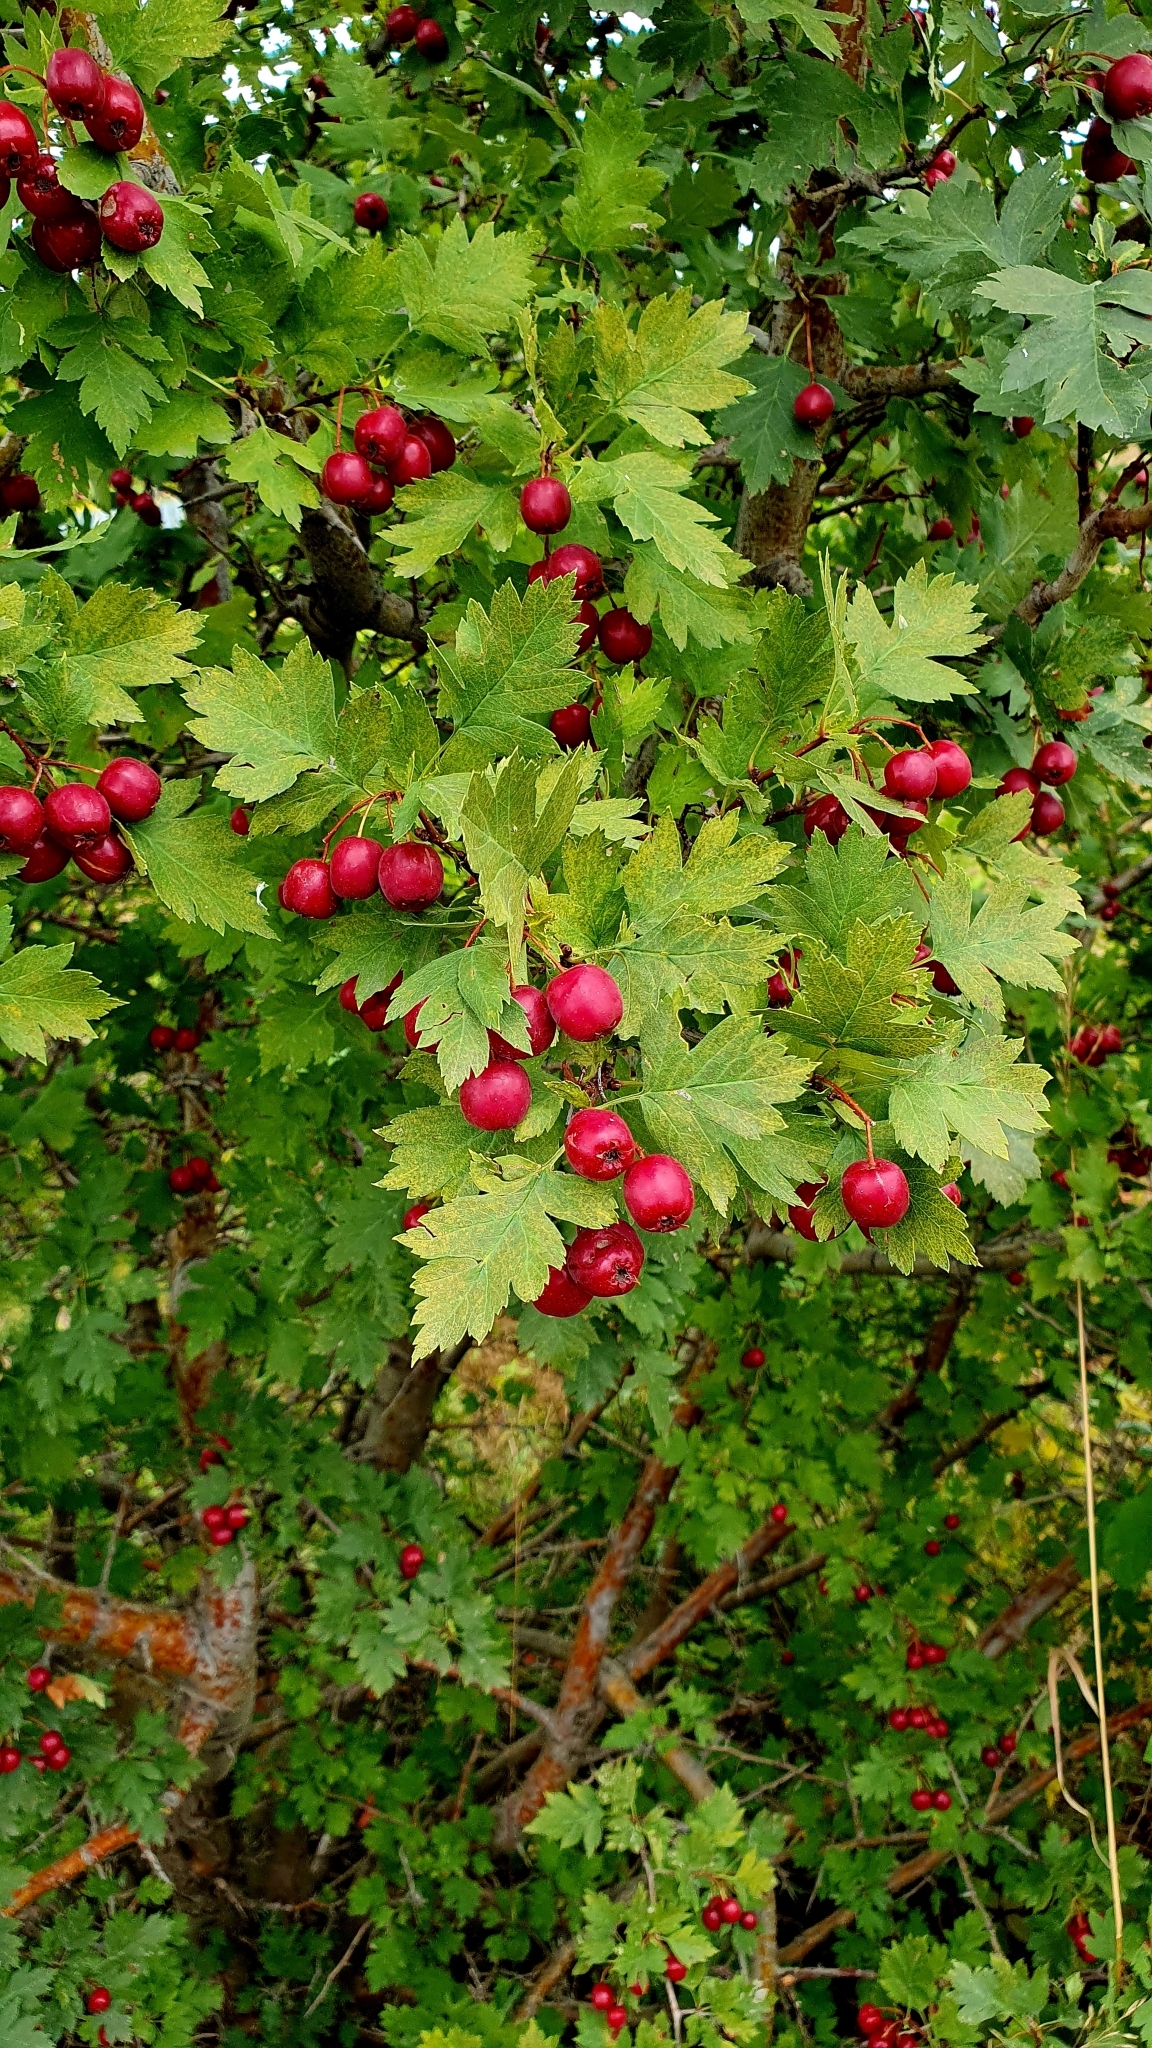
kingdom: Plantae
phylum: Tracheophyta
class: Magnoliopsida
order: Rosales
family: Rosaceae
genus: Crataegus
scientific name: Crataegus monogyna
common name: Hawthorn
